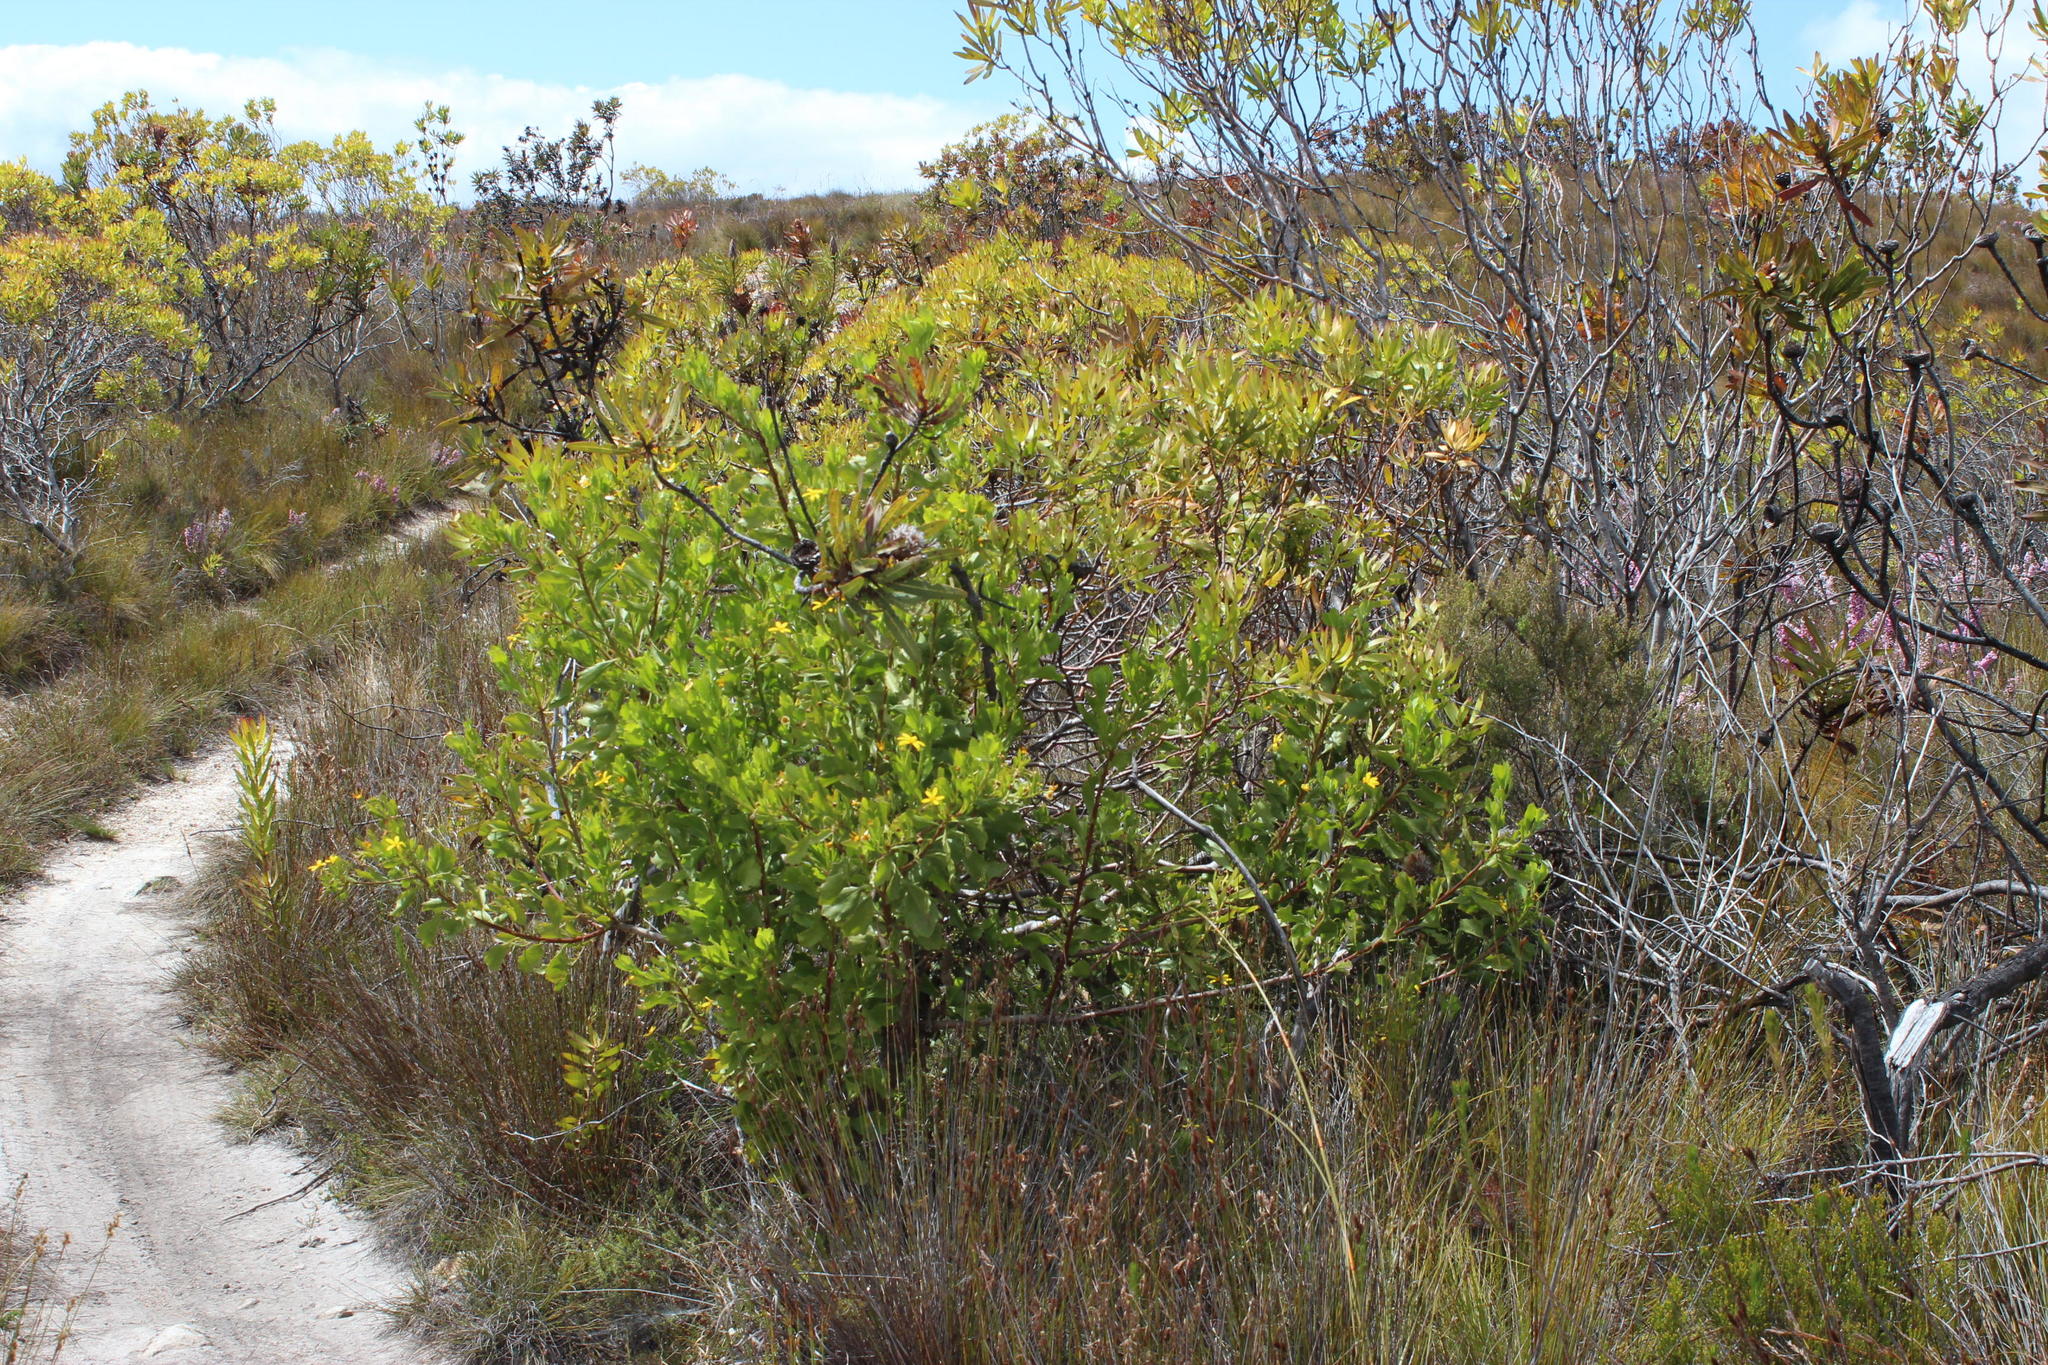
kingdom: Plantae
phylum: Tracheophyta
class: Magnoliopsida
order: Asterales
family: Asteraceae
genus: Osteospermum
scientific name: Osteospermum moniliferum
